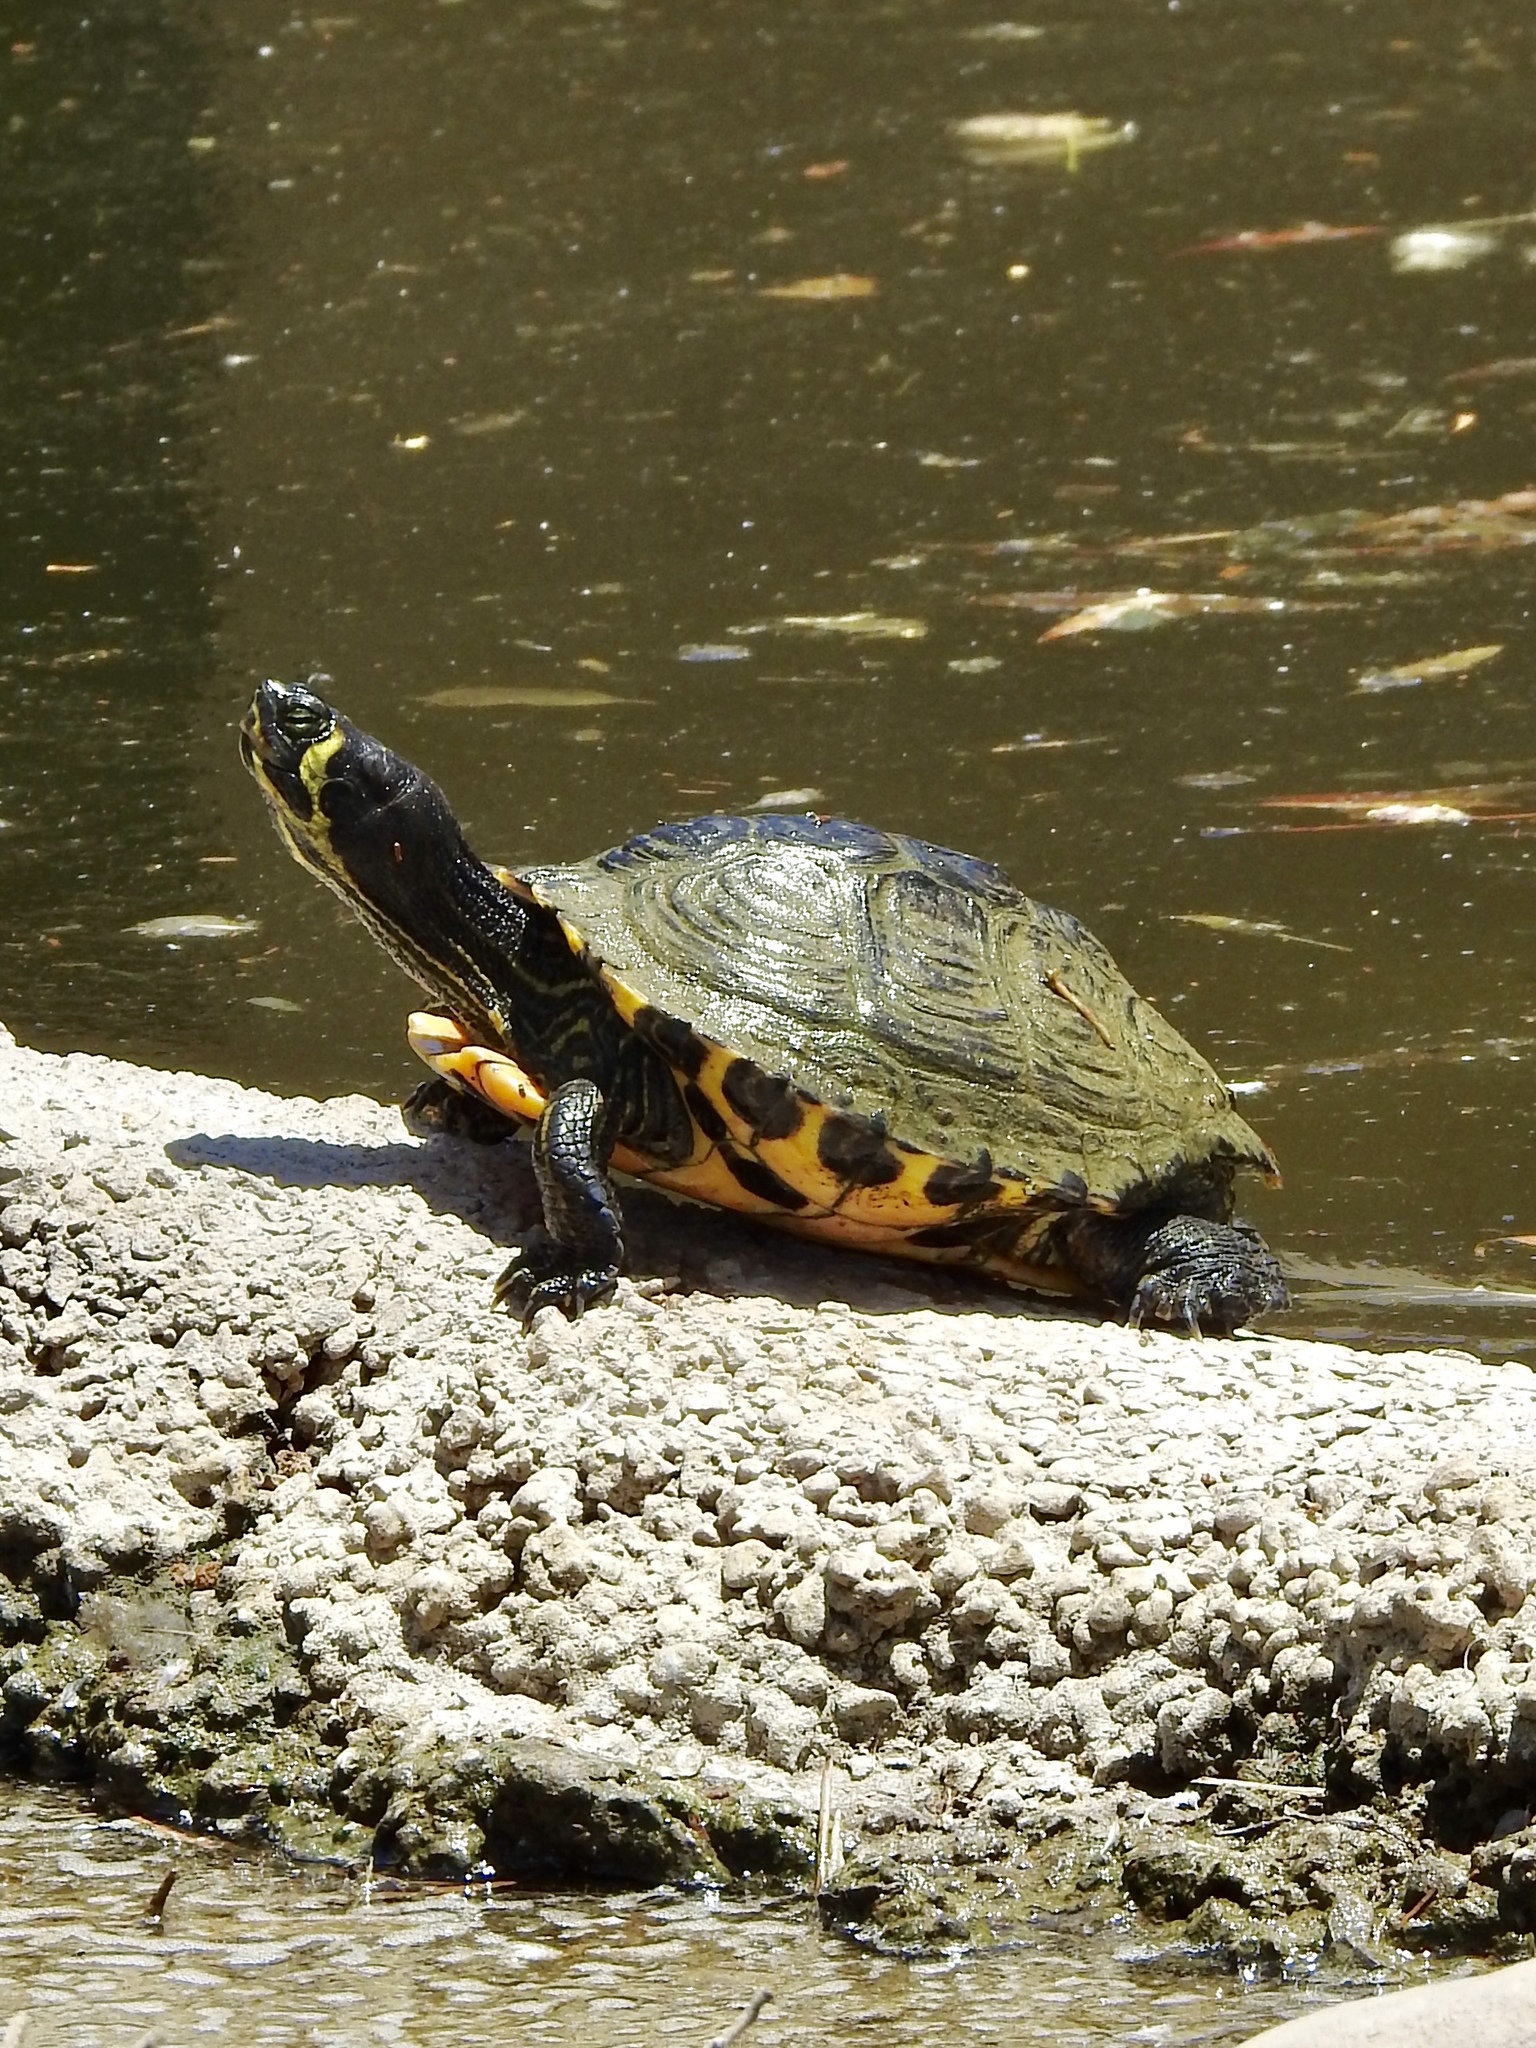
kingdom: Animalia
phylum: Chordata
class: Testudines
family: Emydidae
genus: Trachemys
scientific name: Trachemys scripta
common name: Slider
